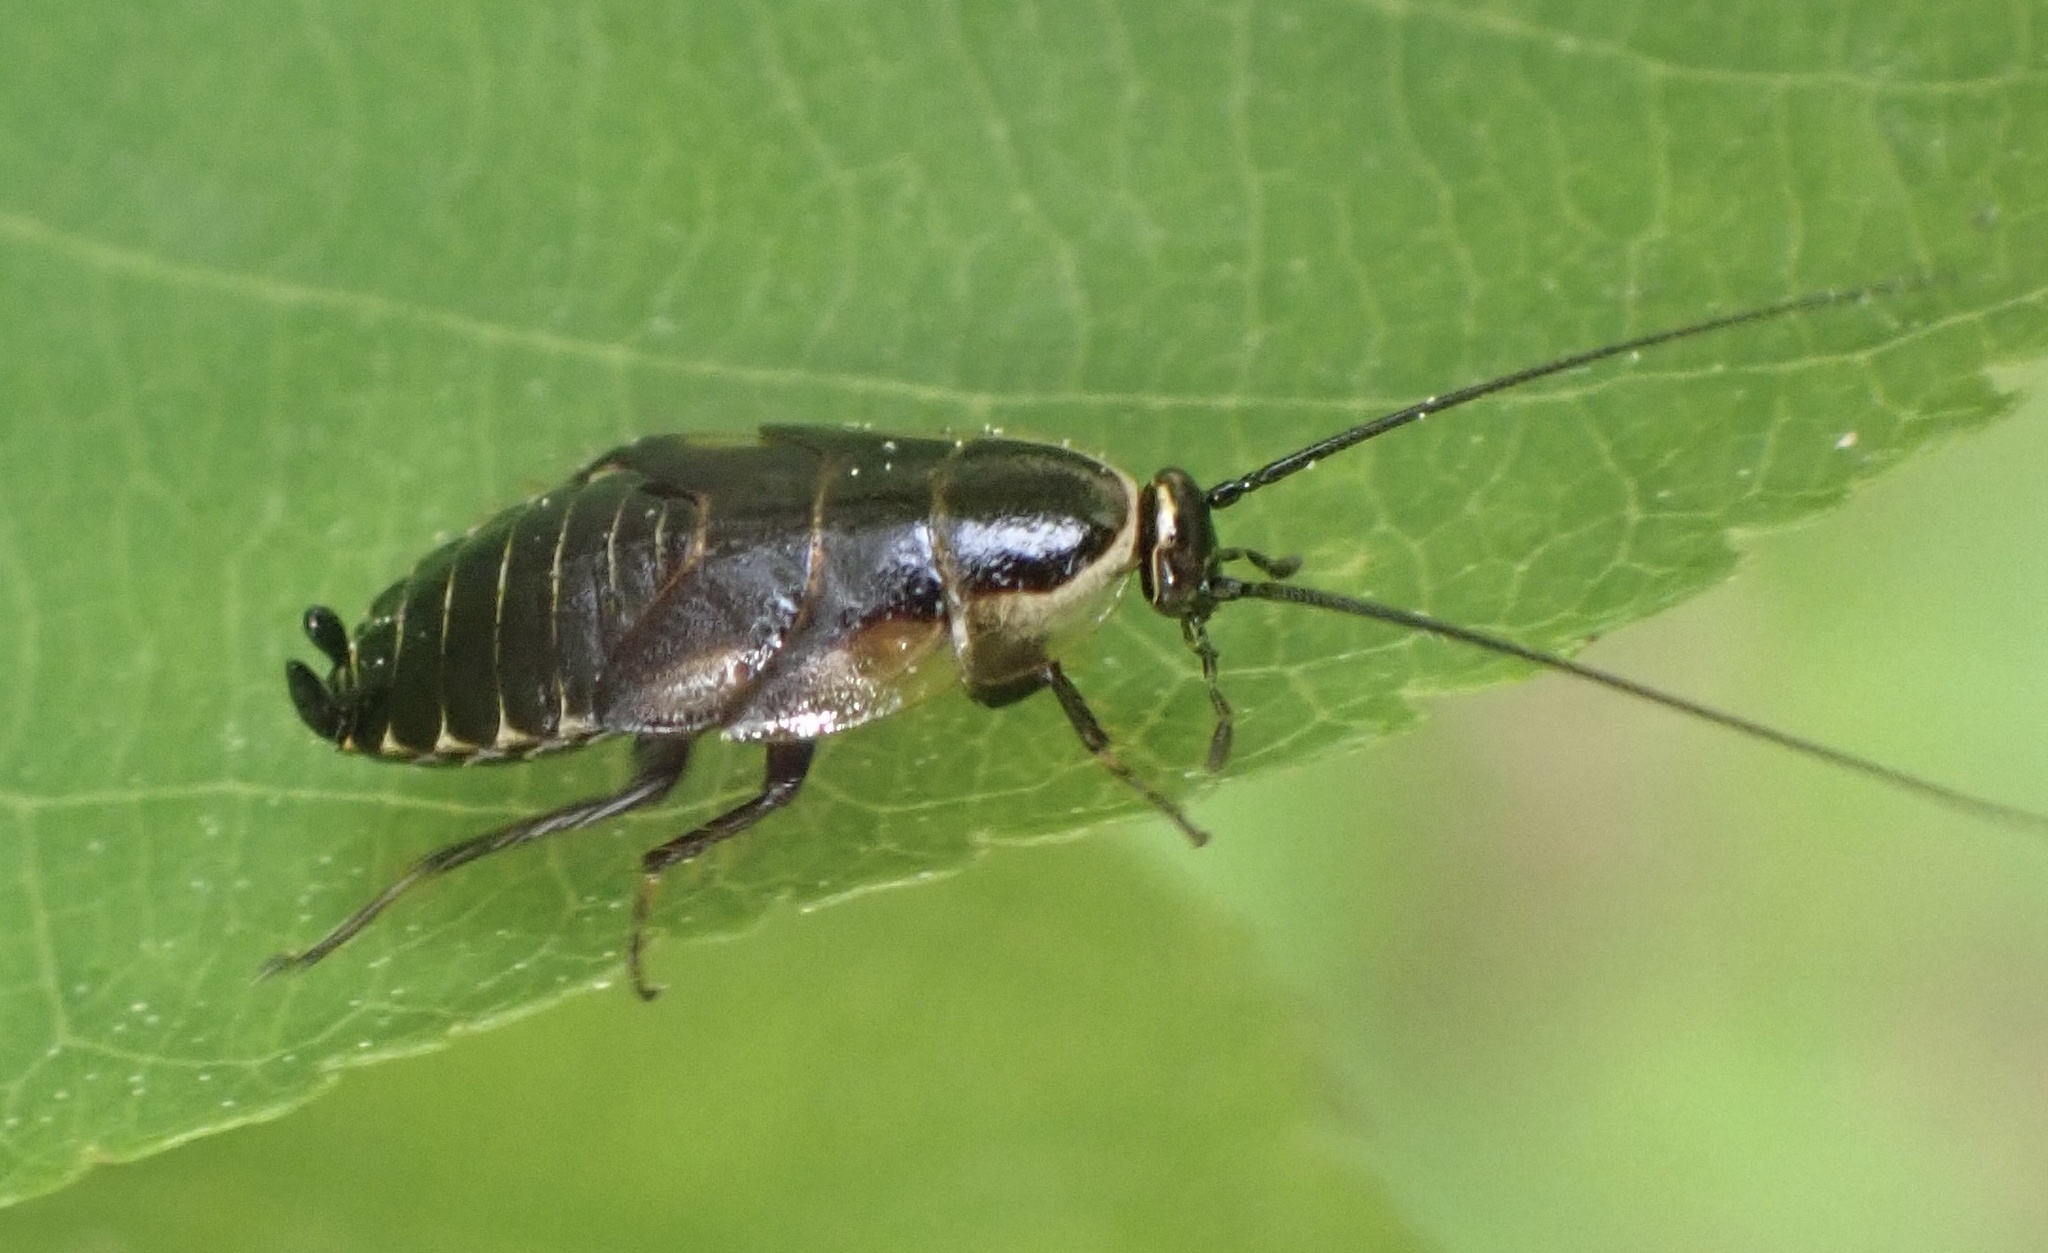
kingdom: Animalia
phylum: Arthropoda
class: Insecta
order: Blattodea
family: Ectobiidae
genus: Ectobius
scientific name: Ectobius sylvestris
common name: Forest cockroach
